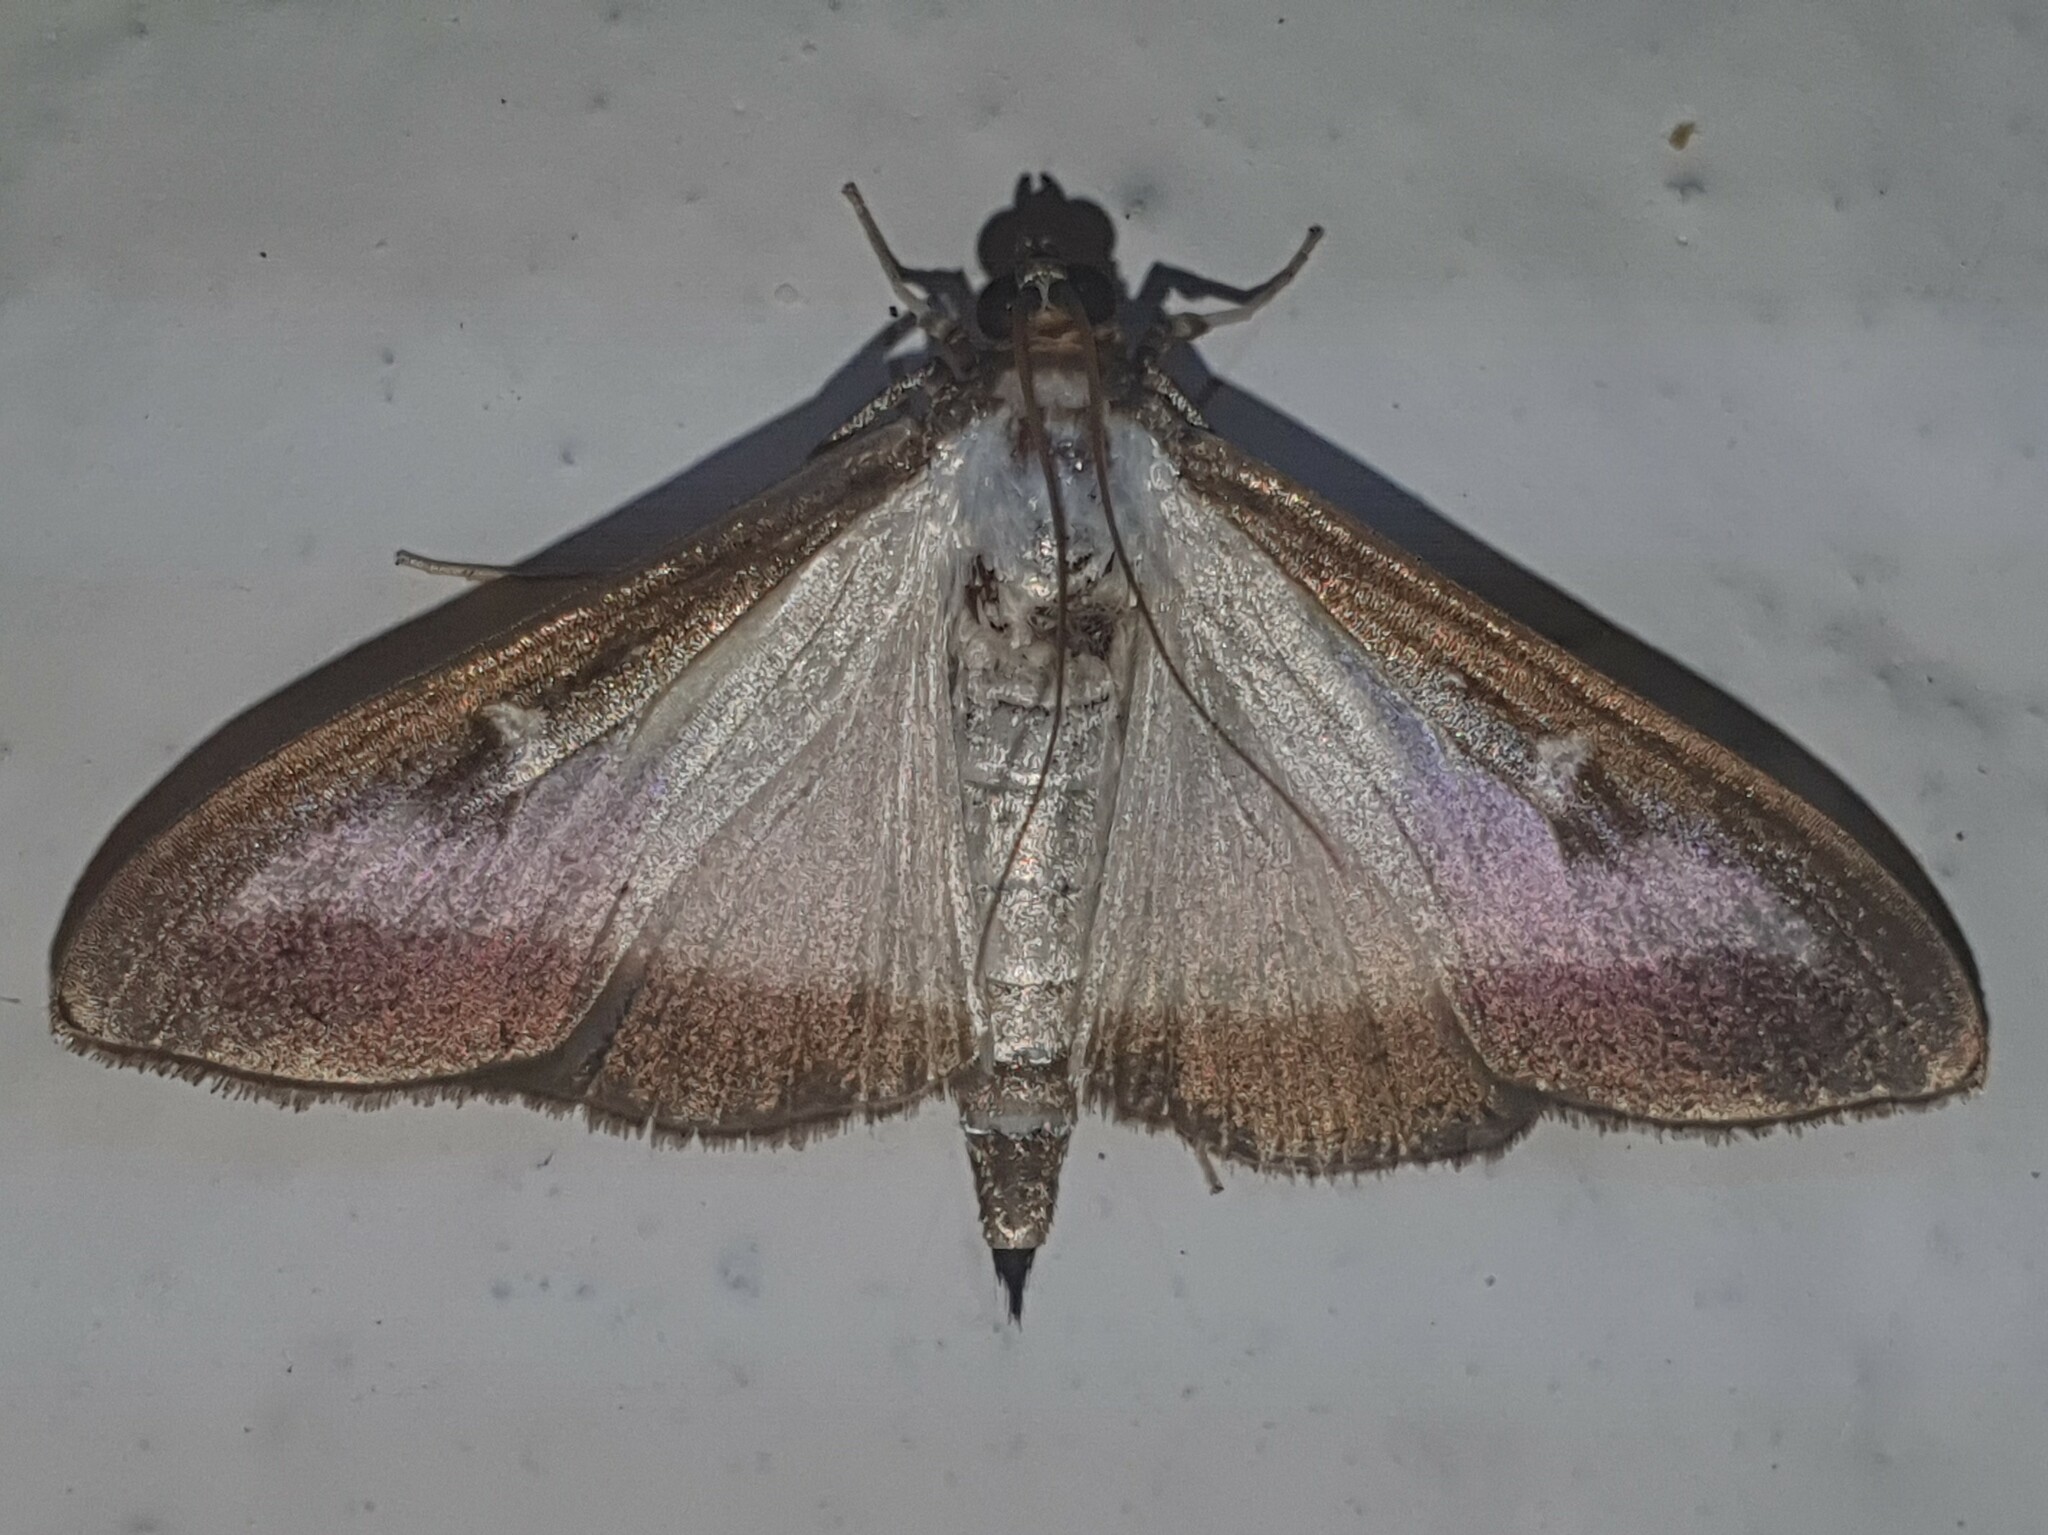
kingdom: Animalia
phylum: Arthropoda
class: Insecta
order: Lepidoptera
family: Crambidae
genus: Cydalima
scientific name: Cydalima perspectalis
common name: Box tree moth
